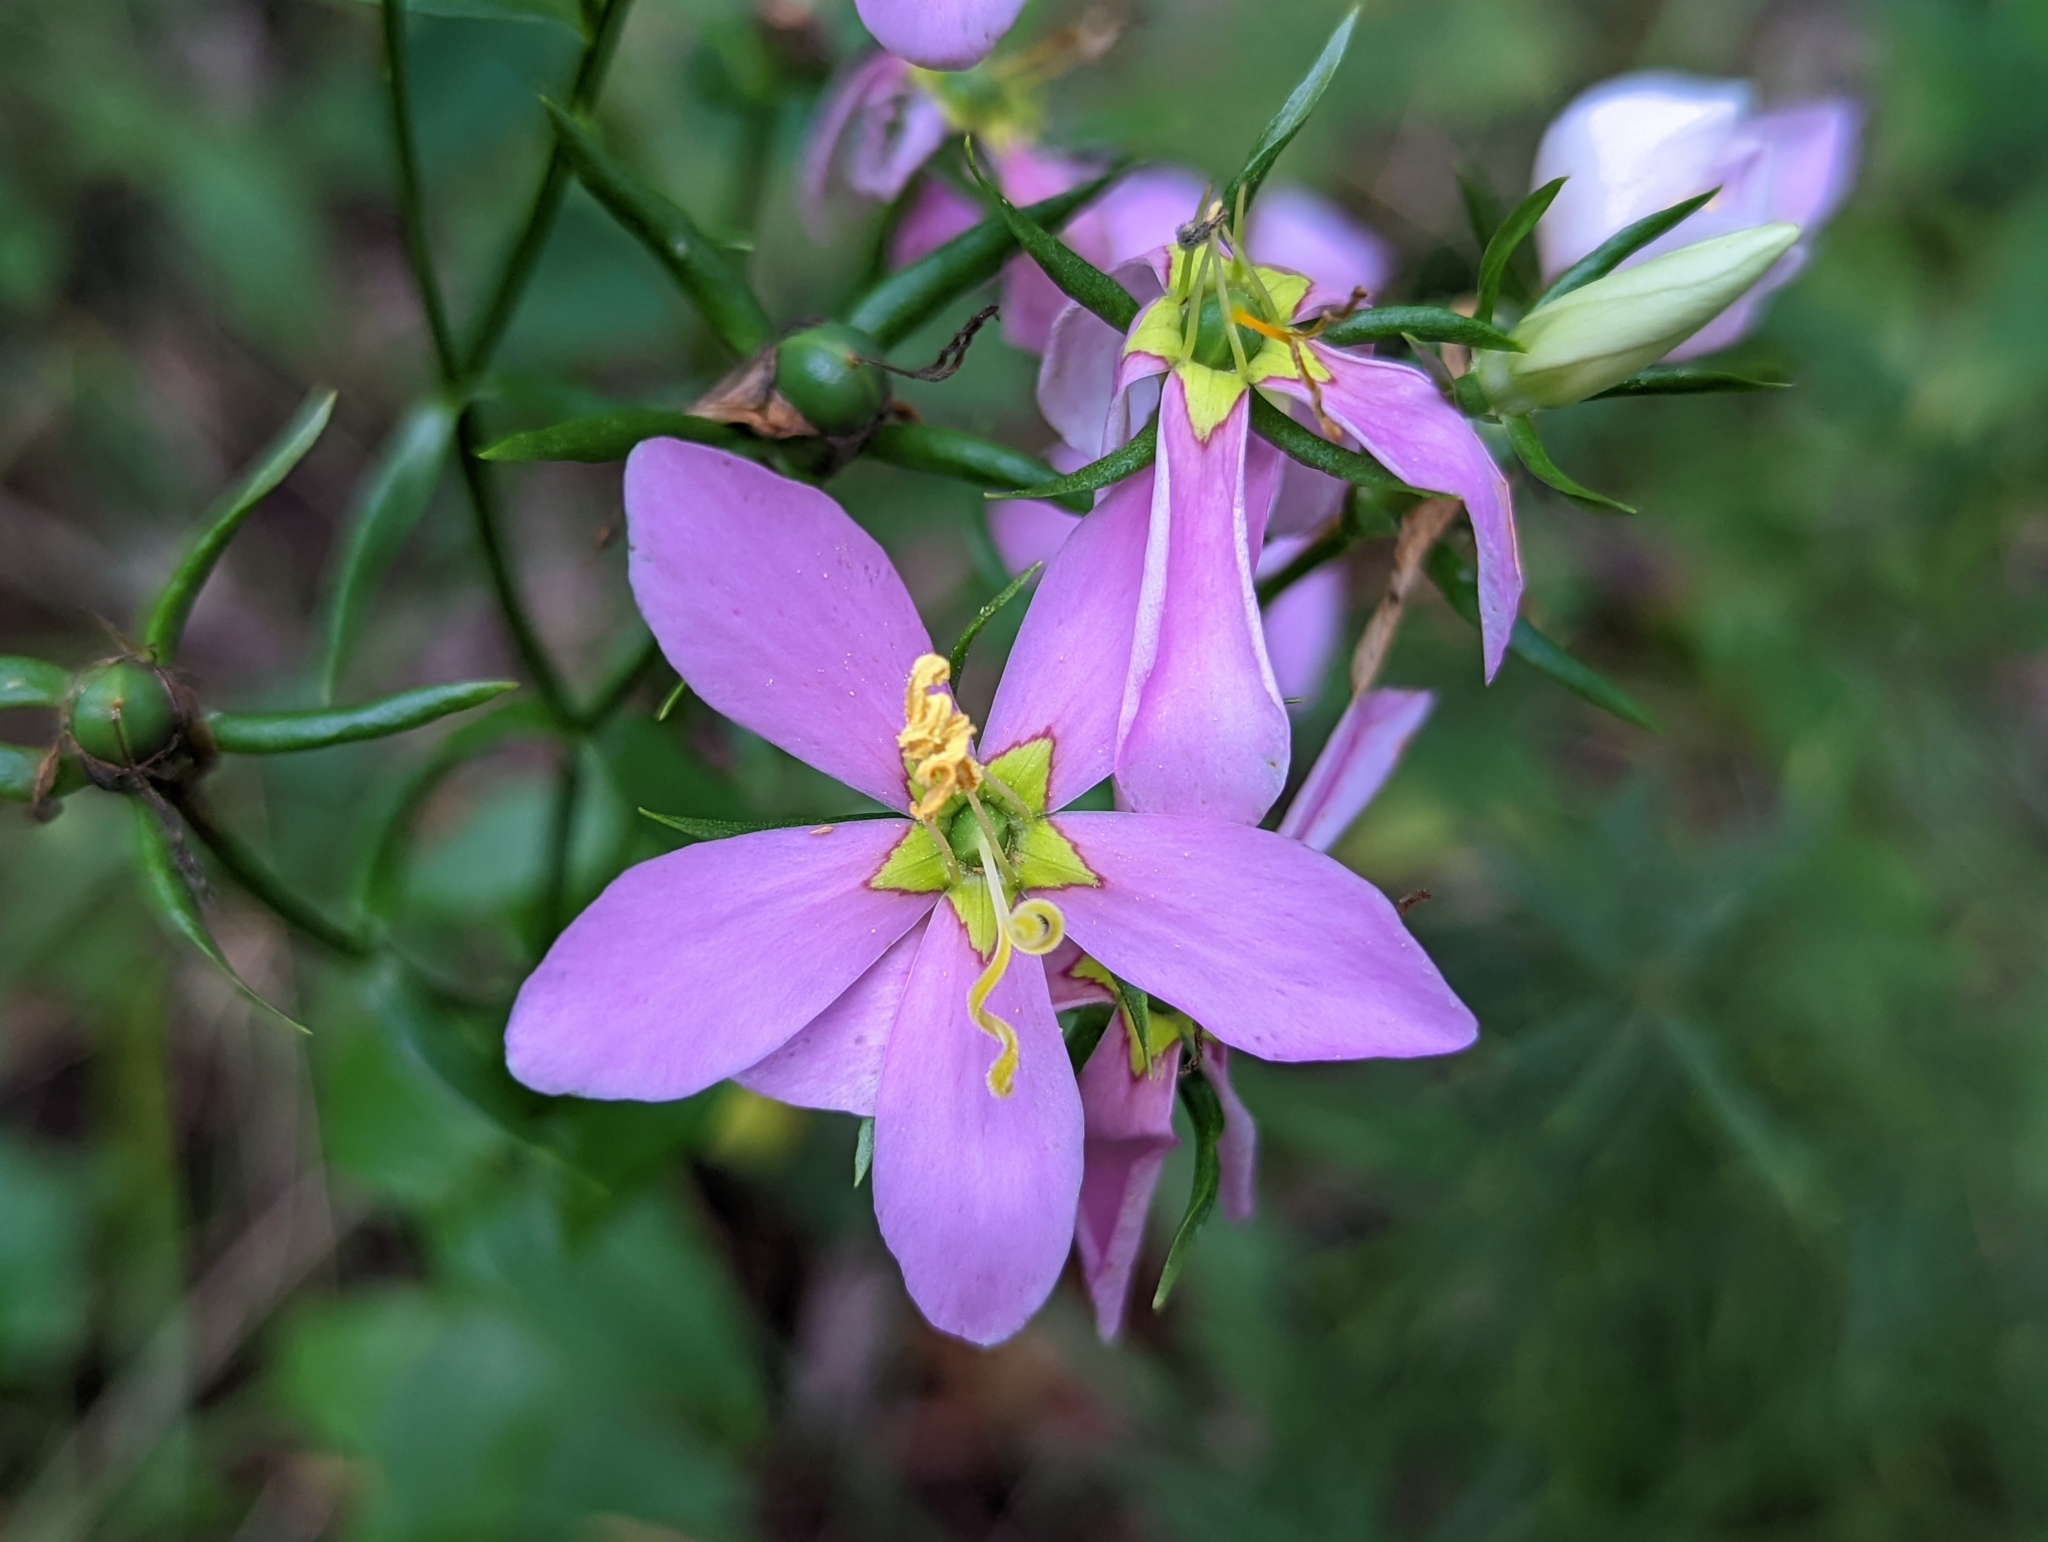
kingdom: Plantae
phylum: Tracheophyta
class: Magnoliopsida
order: Gentianales
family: Gentianaceae
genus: Sabatia
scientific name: Sabatia angularis
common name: Rose-pink
